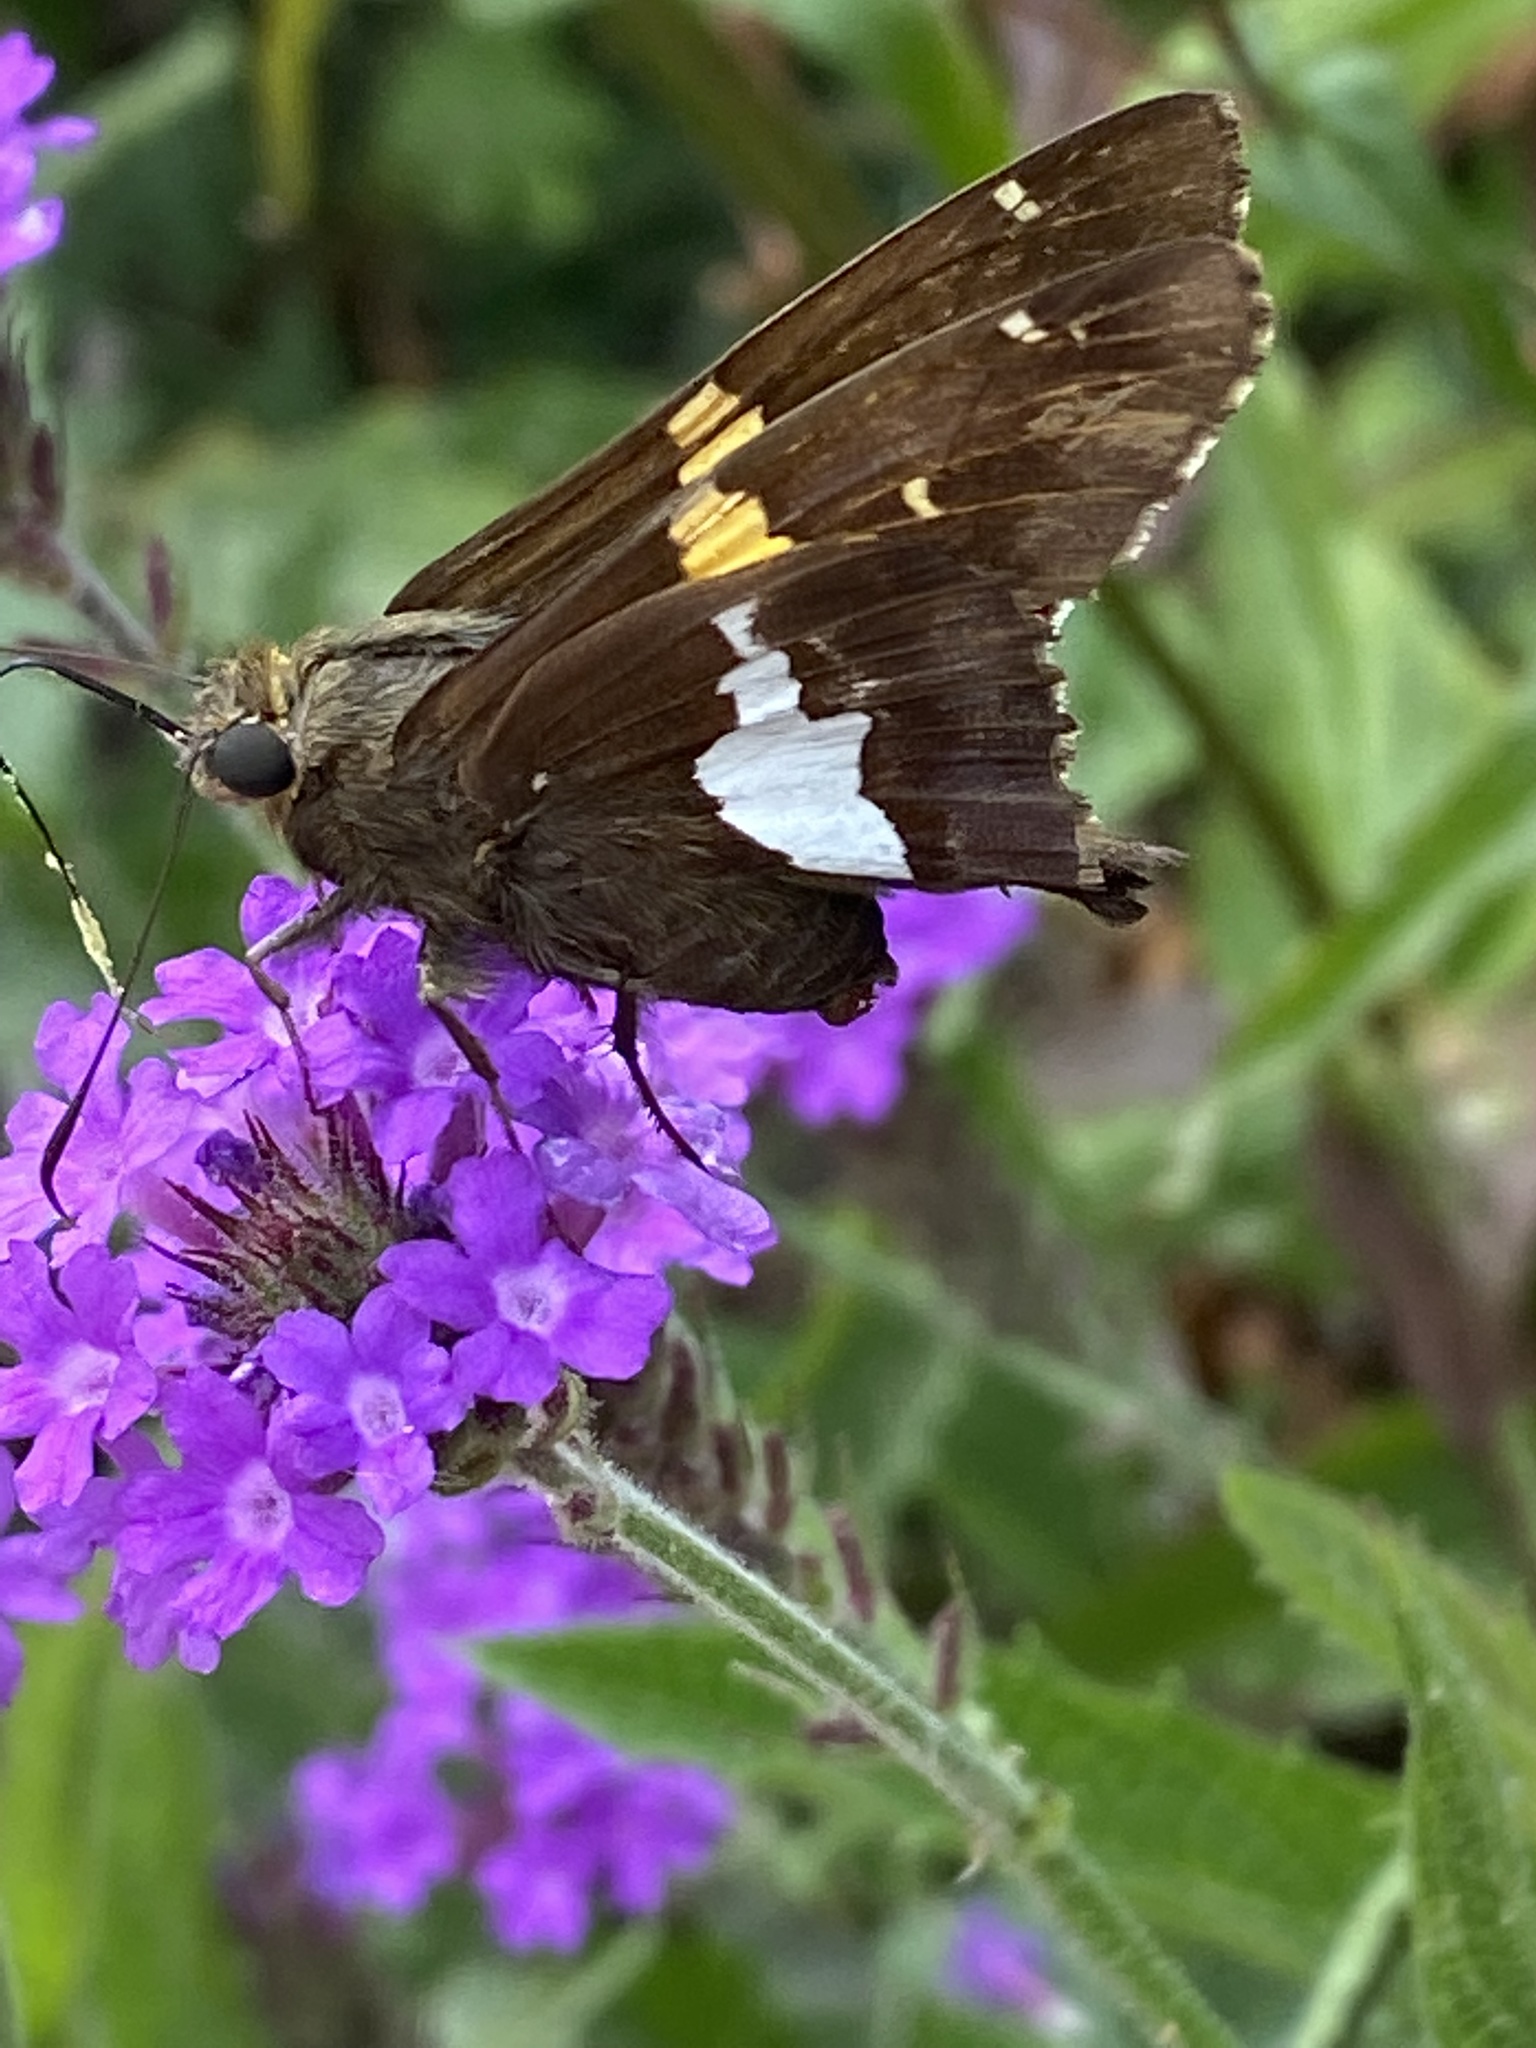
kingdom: Animalia
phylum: Arthropoda
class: Insecta
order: Lepidoptera
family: Hesperiidae
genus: Epargyreus
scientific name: Epargyreus clarus
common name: Silver-spotted skipper
